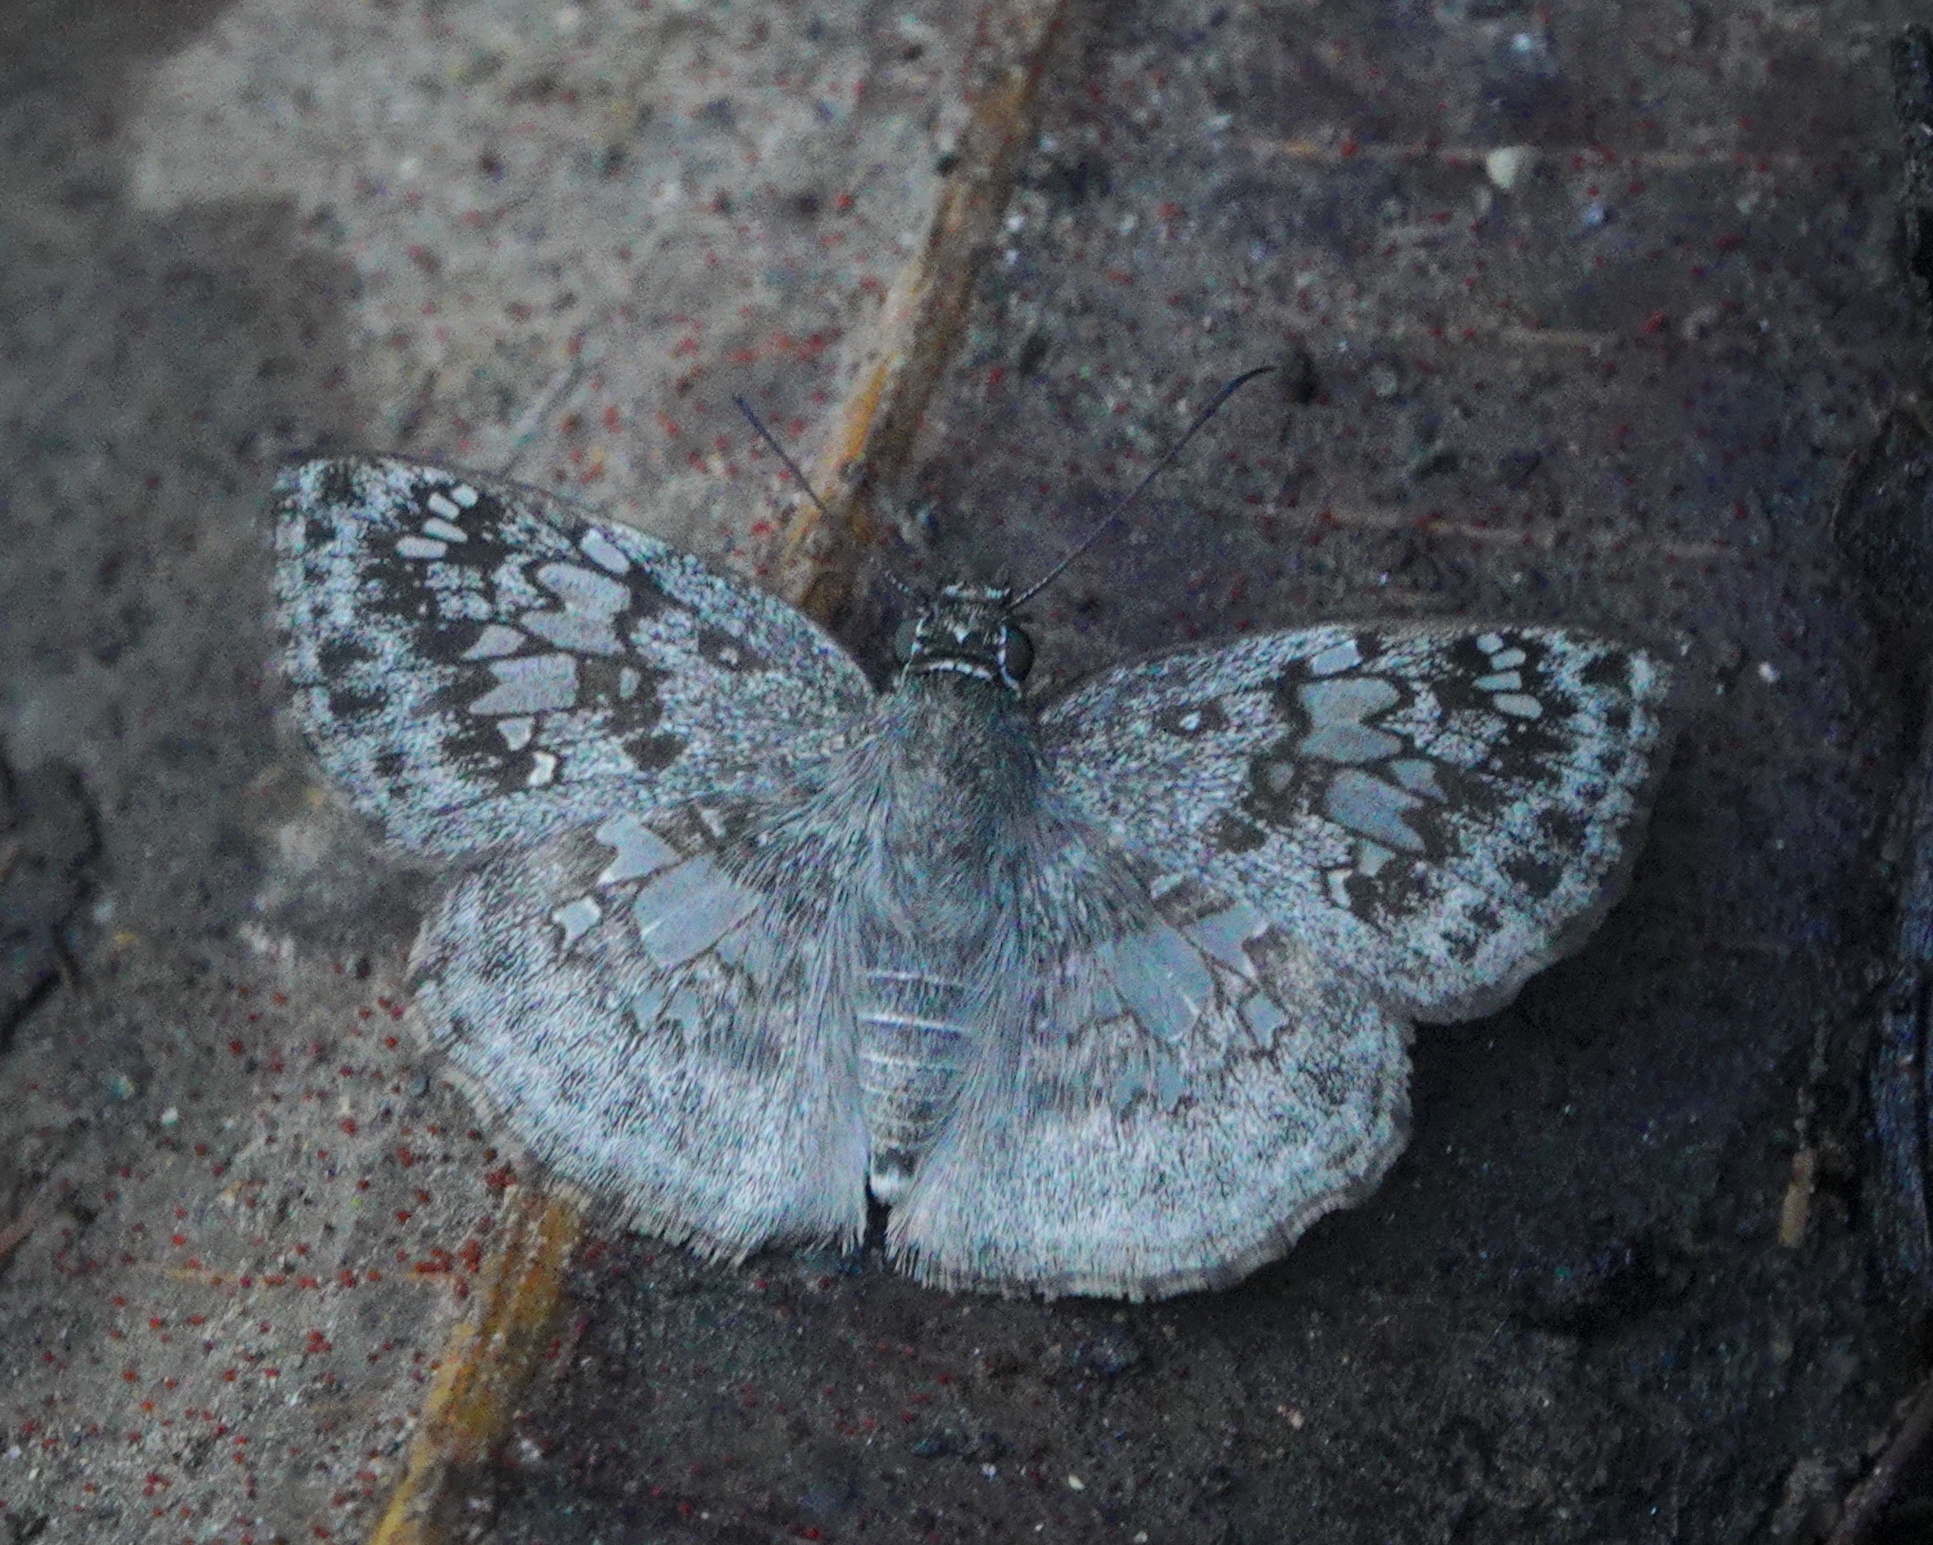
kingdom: Animalia
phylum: Arthropoda
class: Insecta
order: Lepidoptera
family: Hesperiidae
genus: Xenophanes
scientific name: Xenophanes tryxus
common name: Glassy-winged skipper
